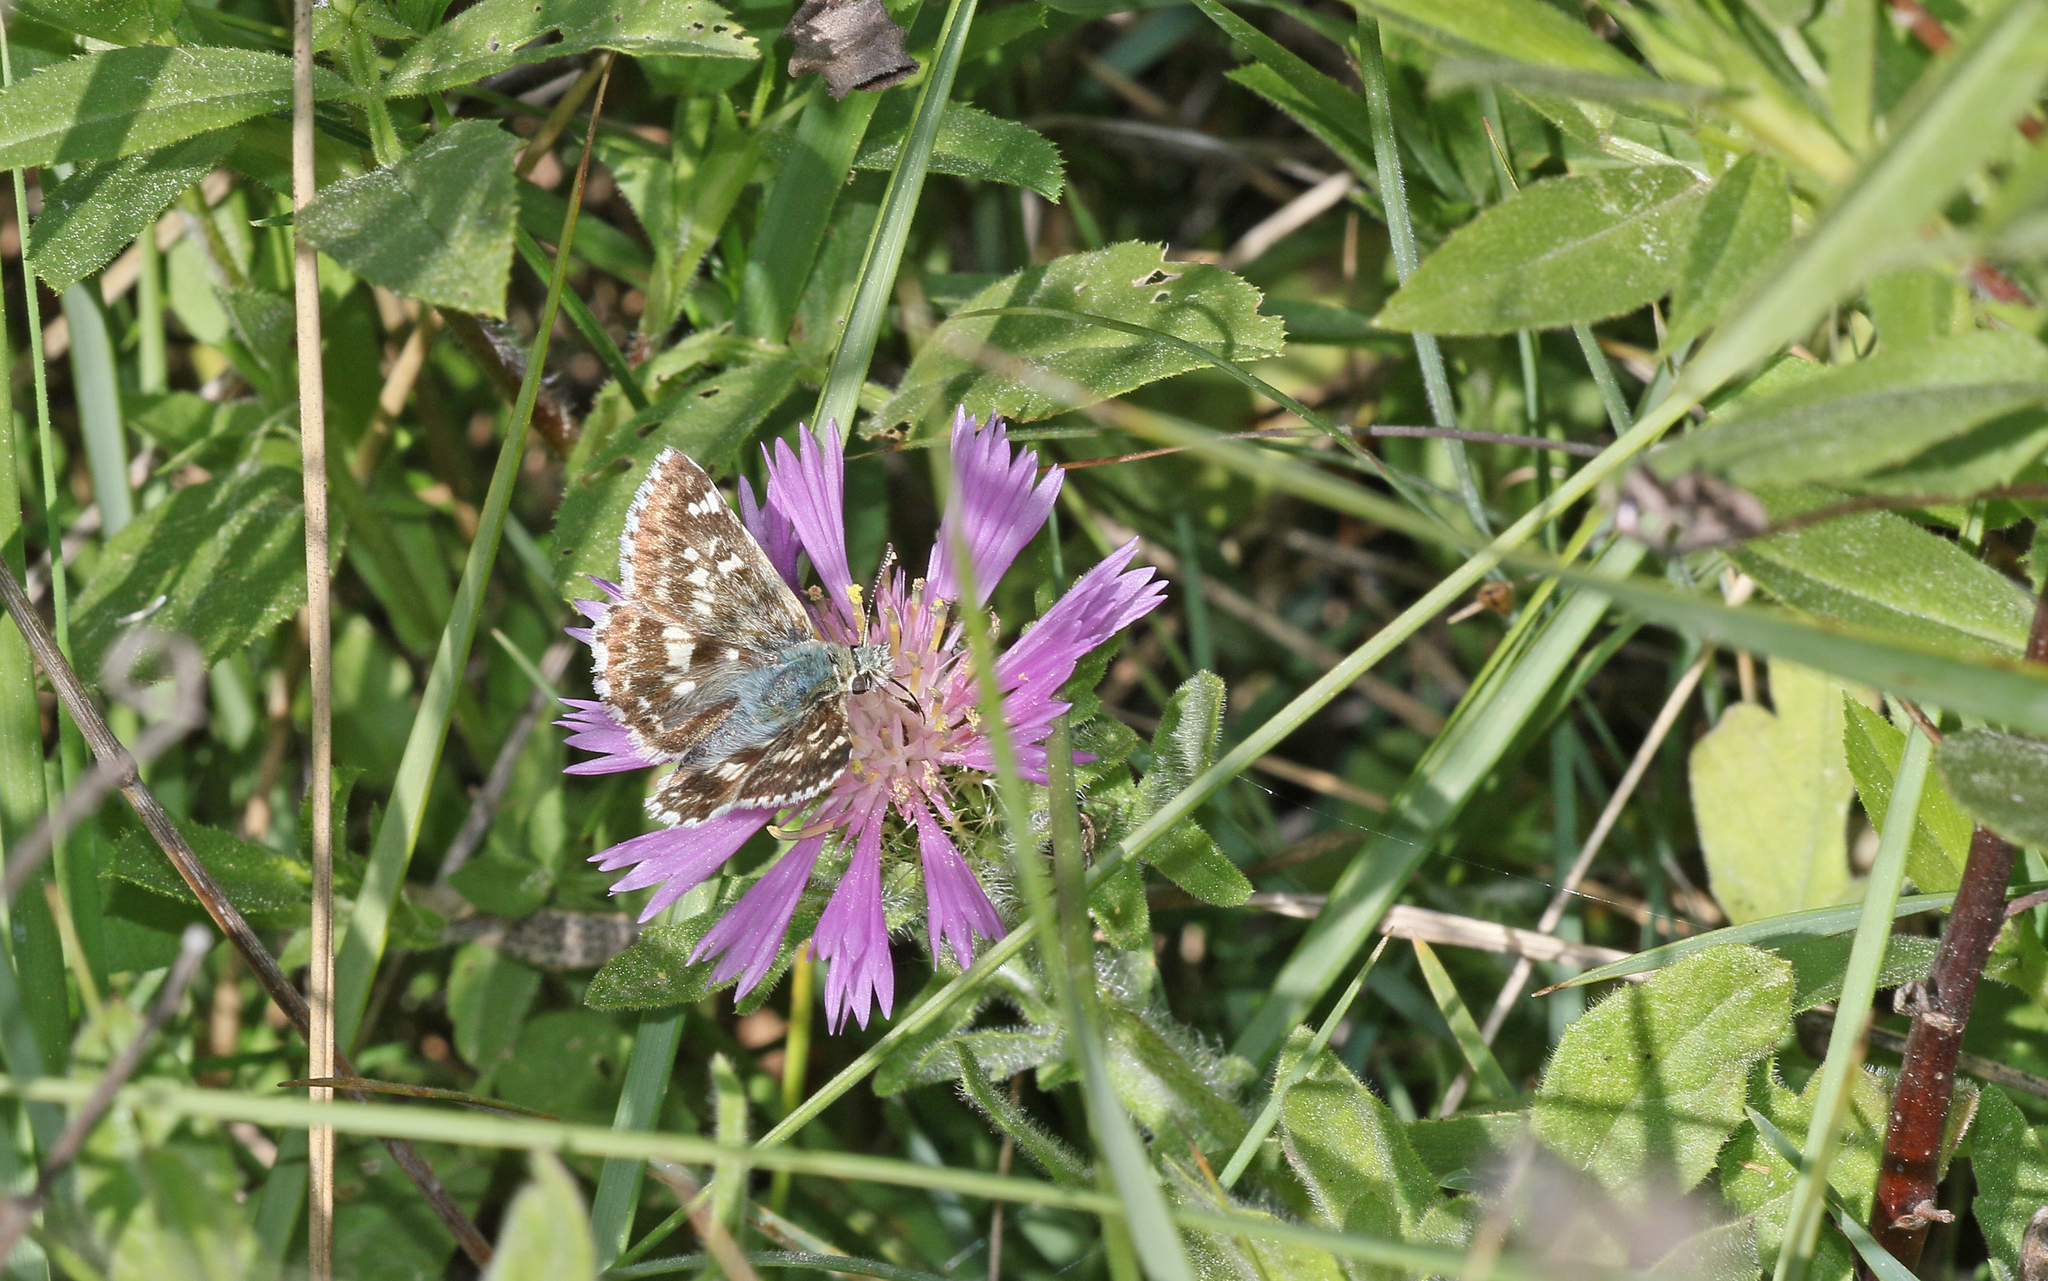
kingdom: Animalia
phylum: Arthropoda
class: Insecta
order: Lepidoptera
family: Hesperiidae
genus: Syrichtus
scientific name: Syrichtus Muschampia proto
